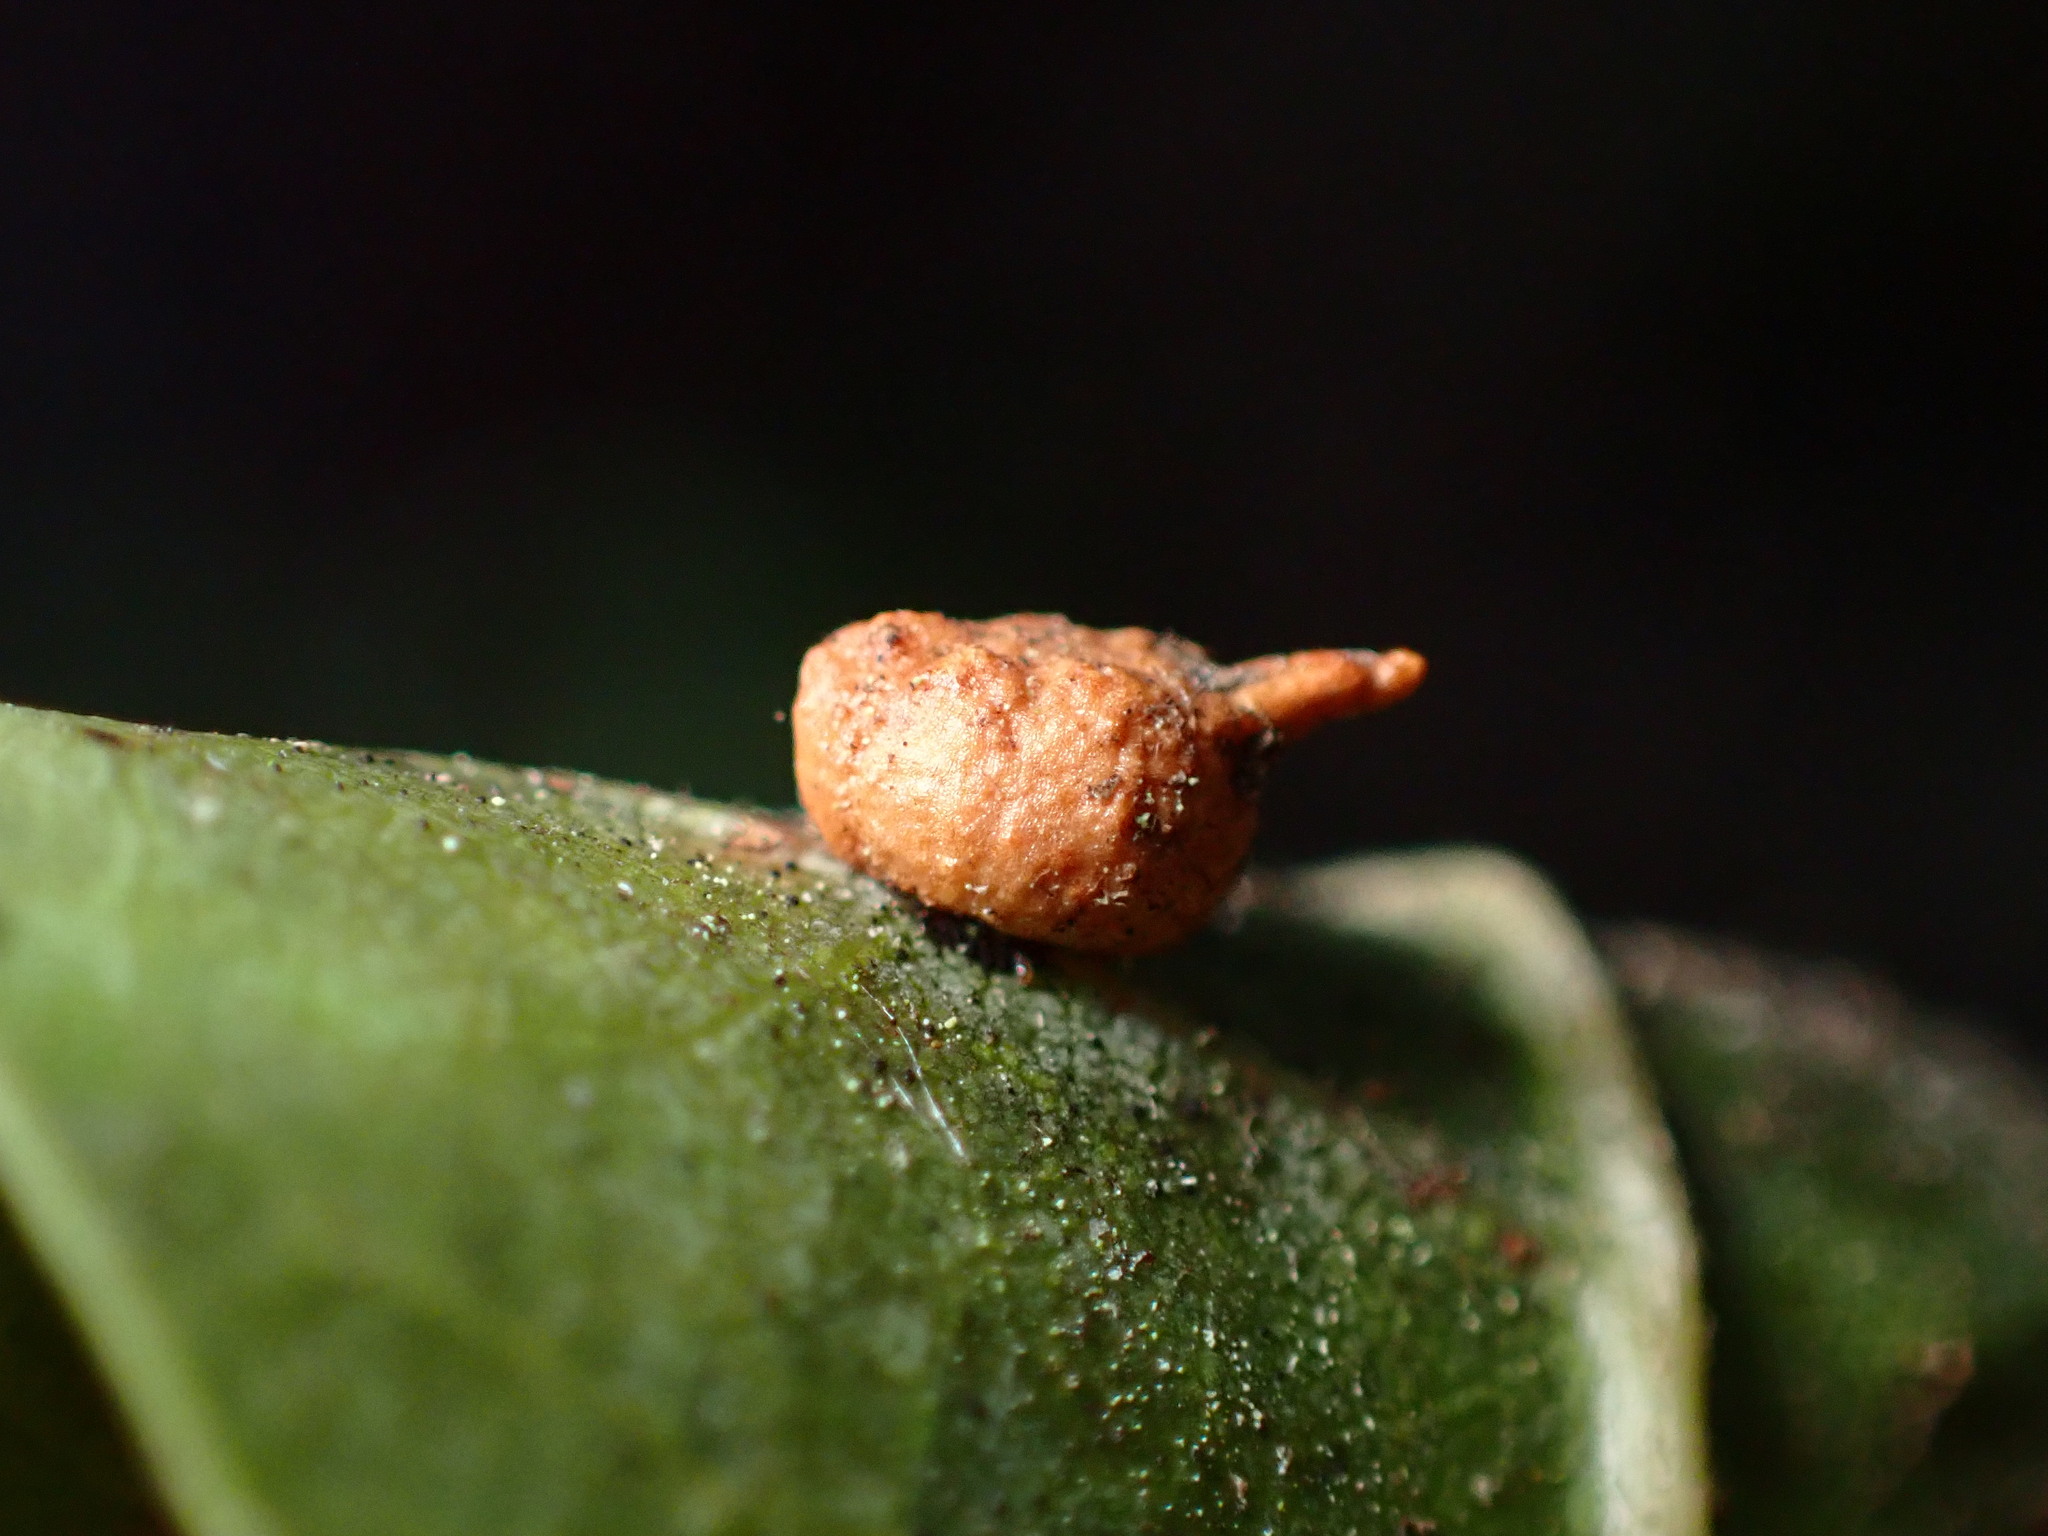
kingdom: Animalia
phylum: Arthropoda
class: Insecta
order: Hymenoptera
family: Cynipidae
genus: Dryocosmus
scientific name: Dryocosmus
